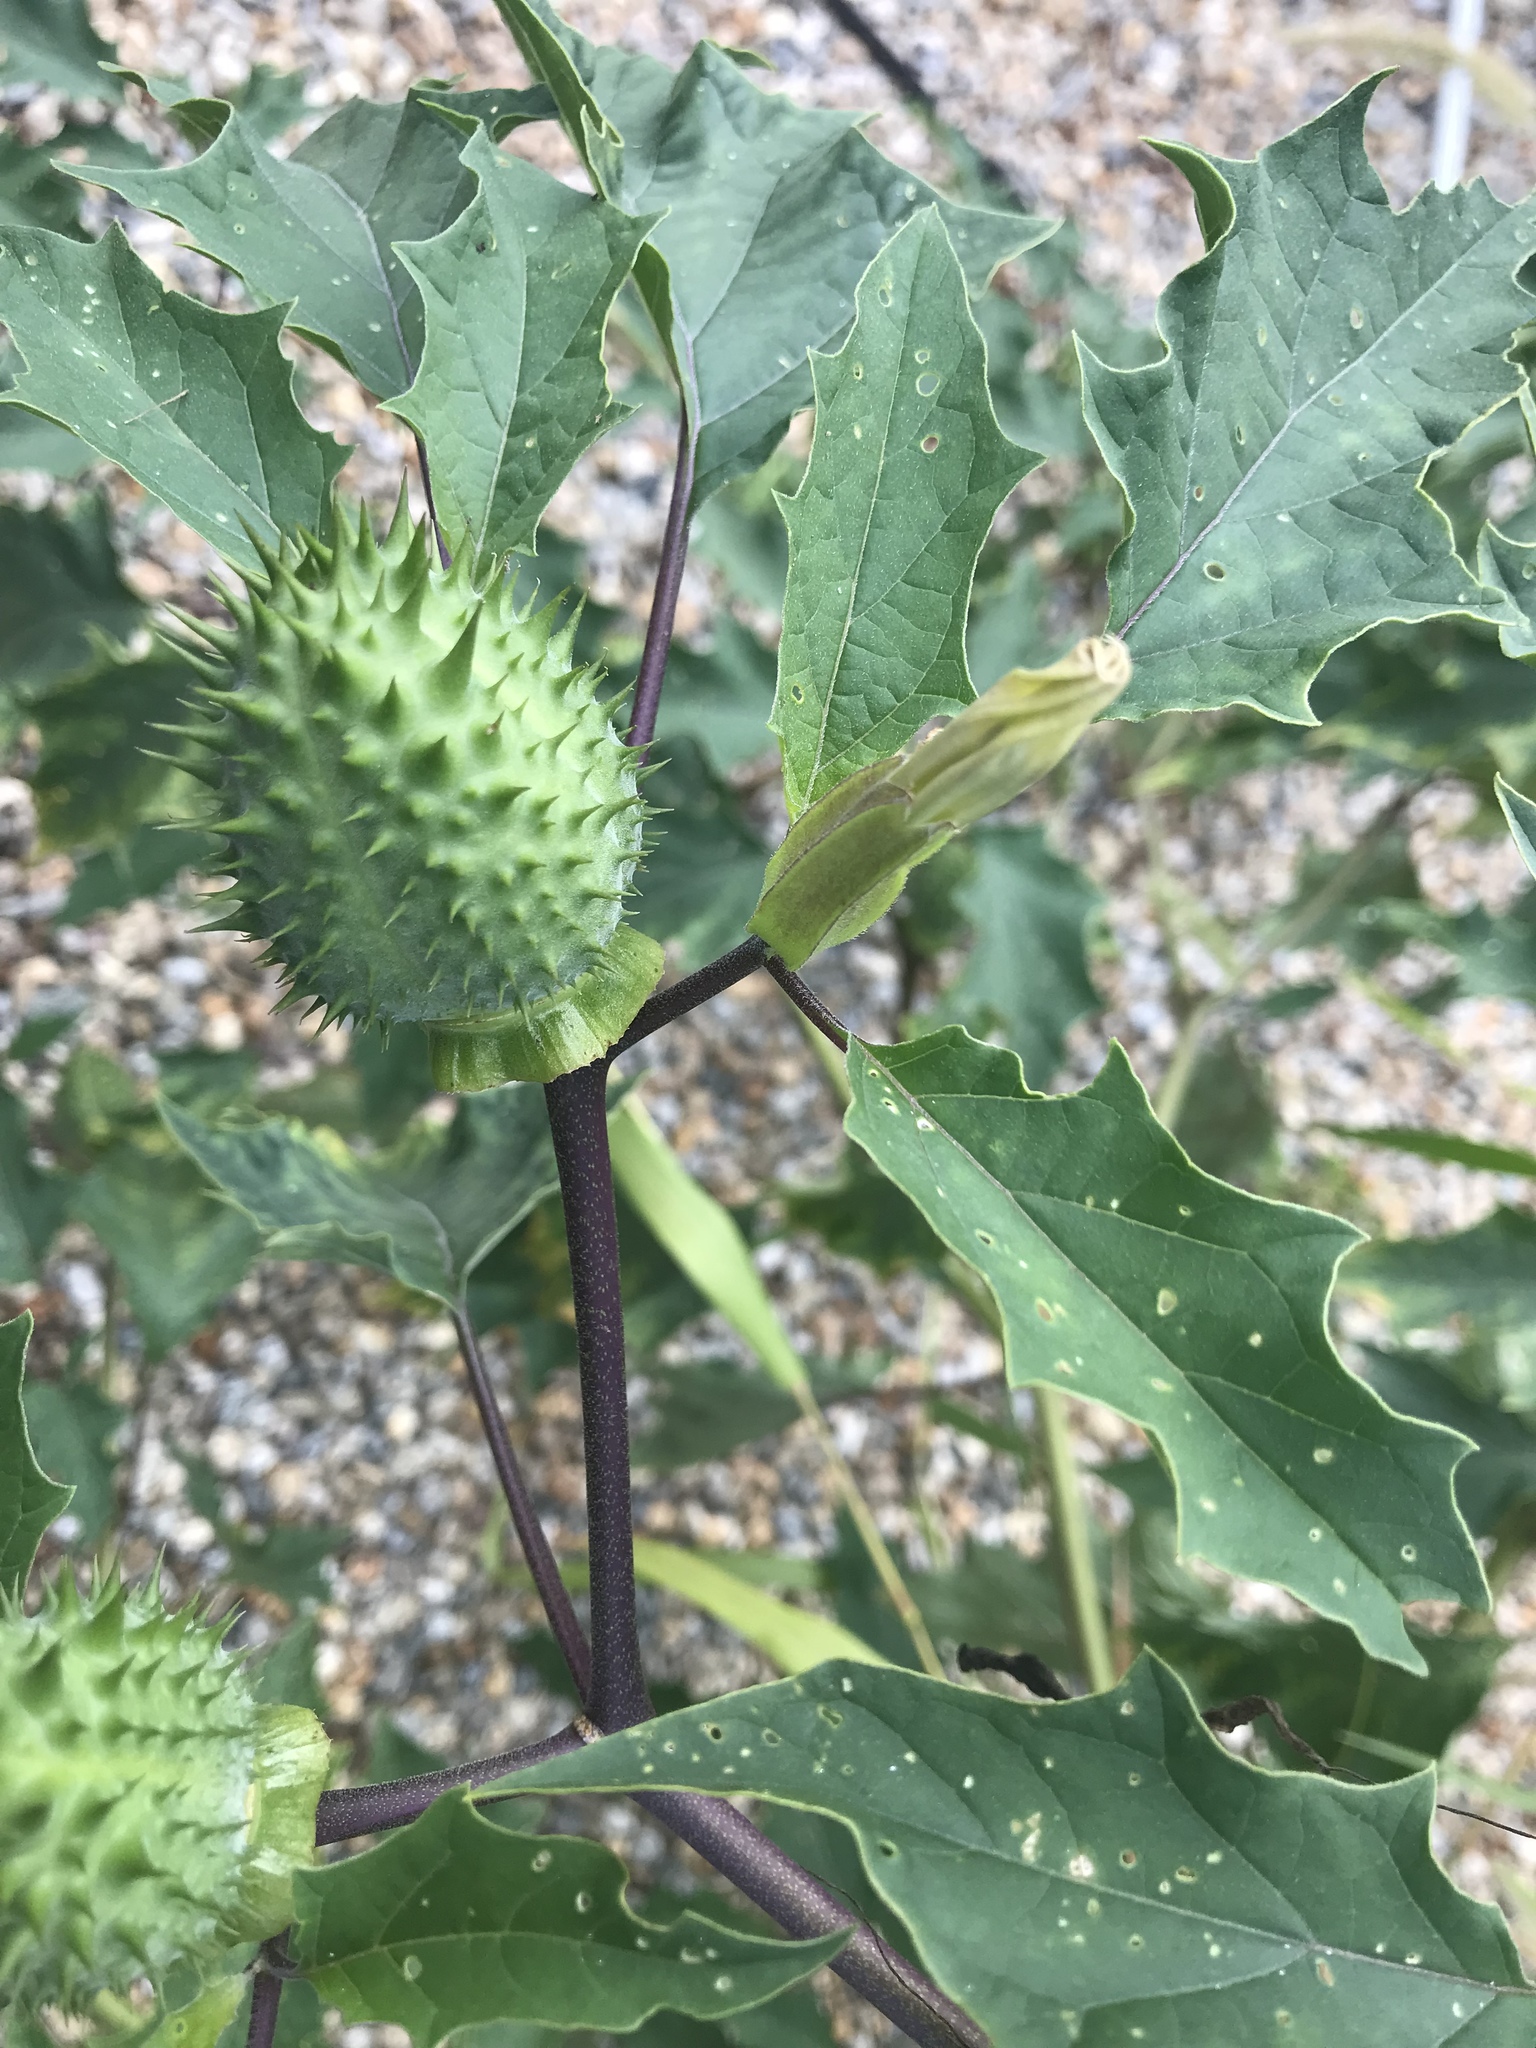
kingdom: Plantae
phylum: Tracheophyta
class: Magnoliopsida
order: Solanales
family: Solanaceae
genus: Datura
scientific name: Datura stramonium
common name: Thorn-apple
